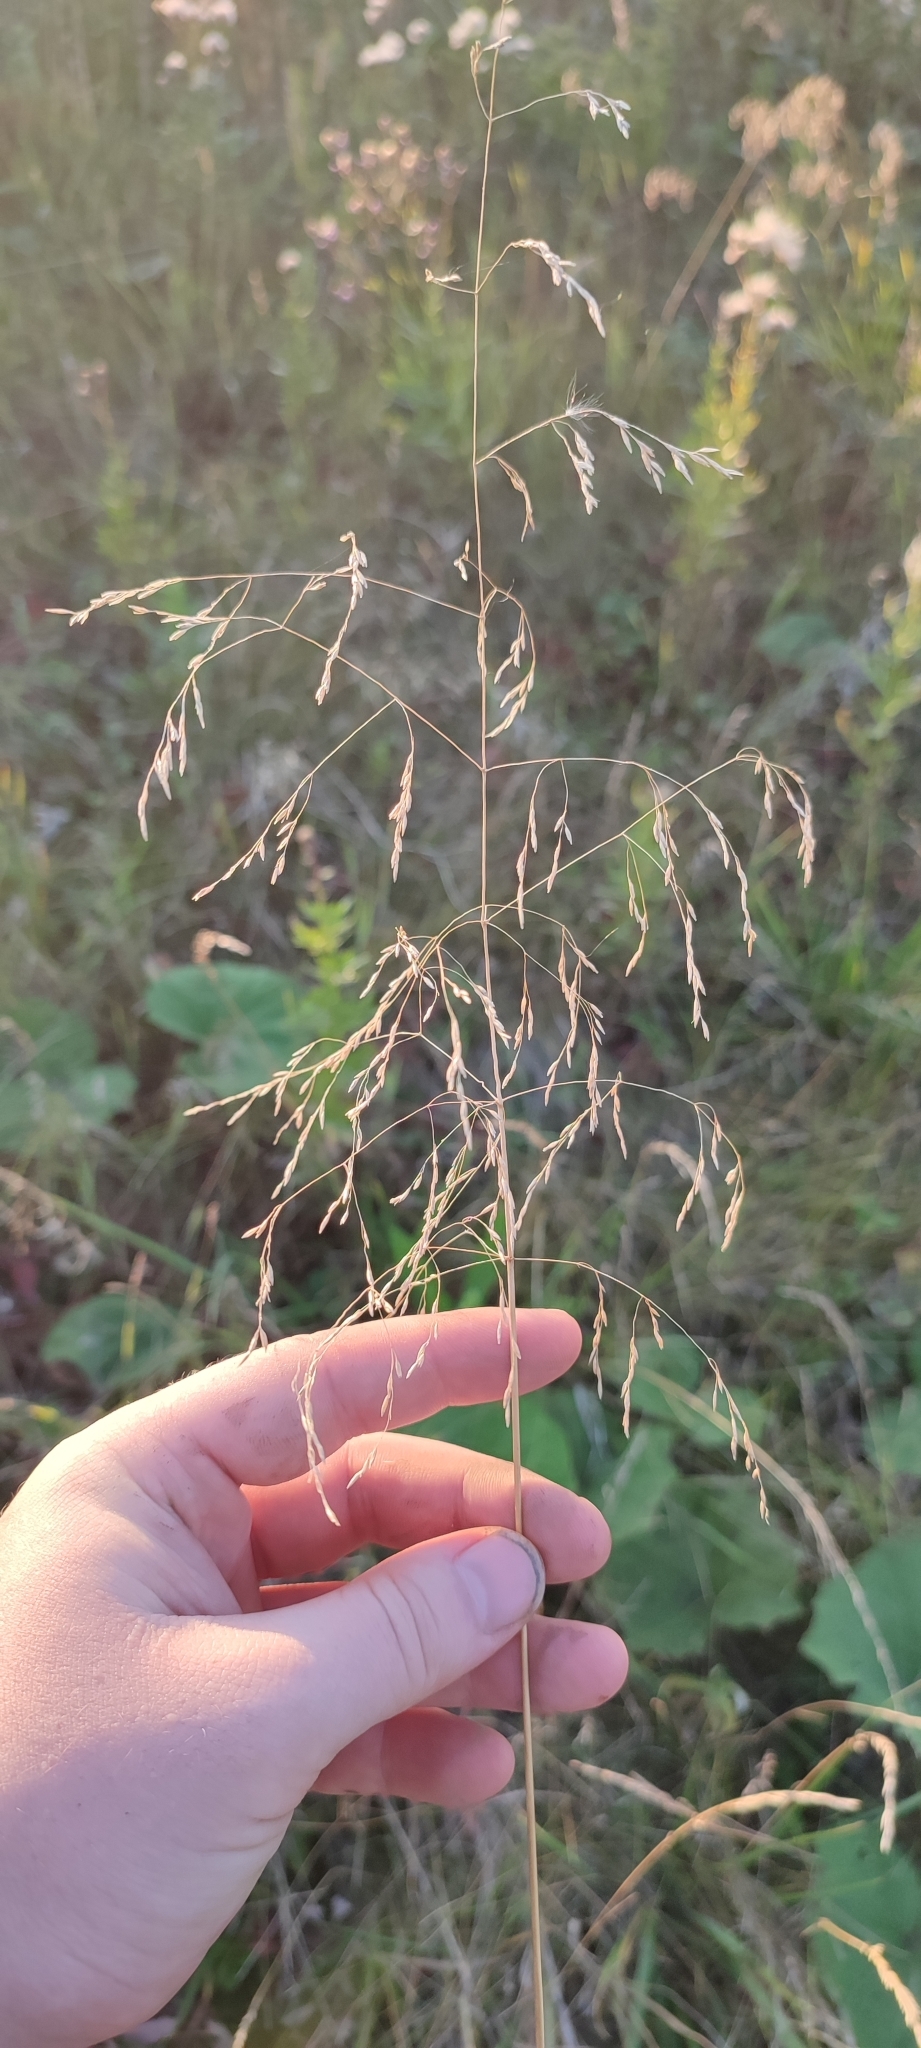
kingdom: Plantae
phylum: Tracheophyta
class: Liliopsida
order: Poales
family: Poaceae
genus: Deschampsia
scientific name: Deschampsia cespitosa
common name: Tufted hair-grass
